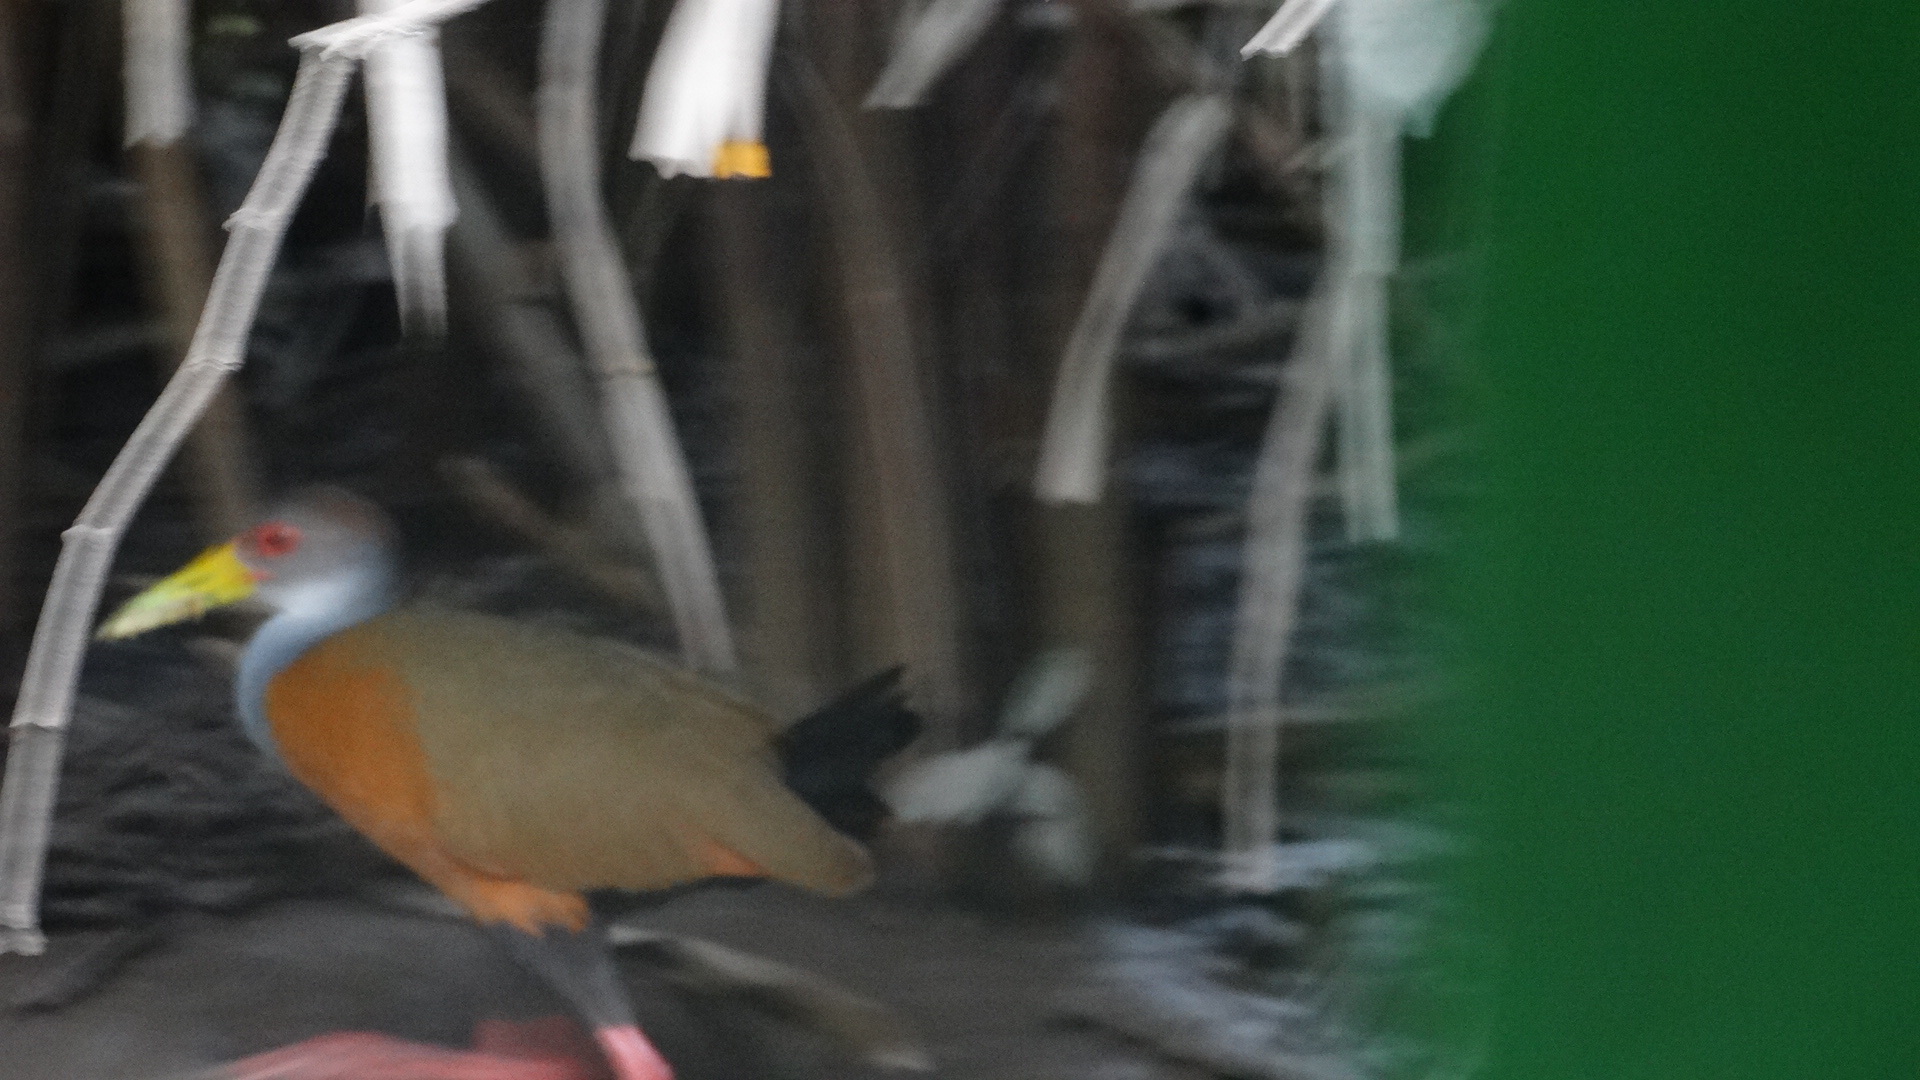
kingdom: Animalia
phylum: Chordata
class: Aves
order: Gruiformes
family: Rallidae
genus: Aramides
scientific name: Aramides cajanea
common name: Gray-necked wood-rail
